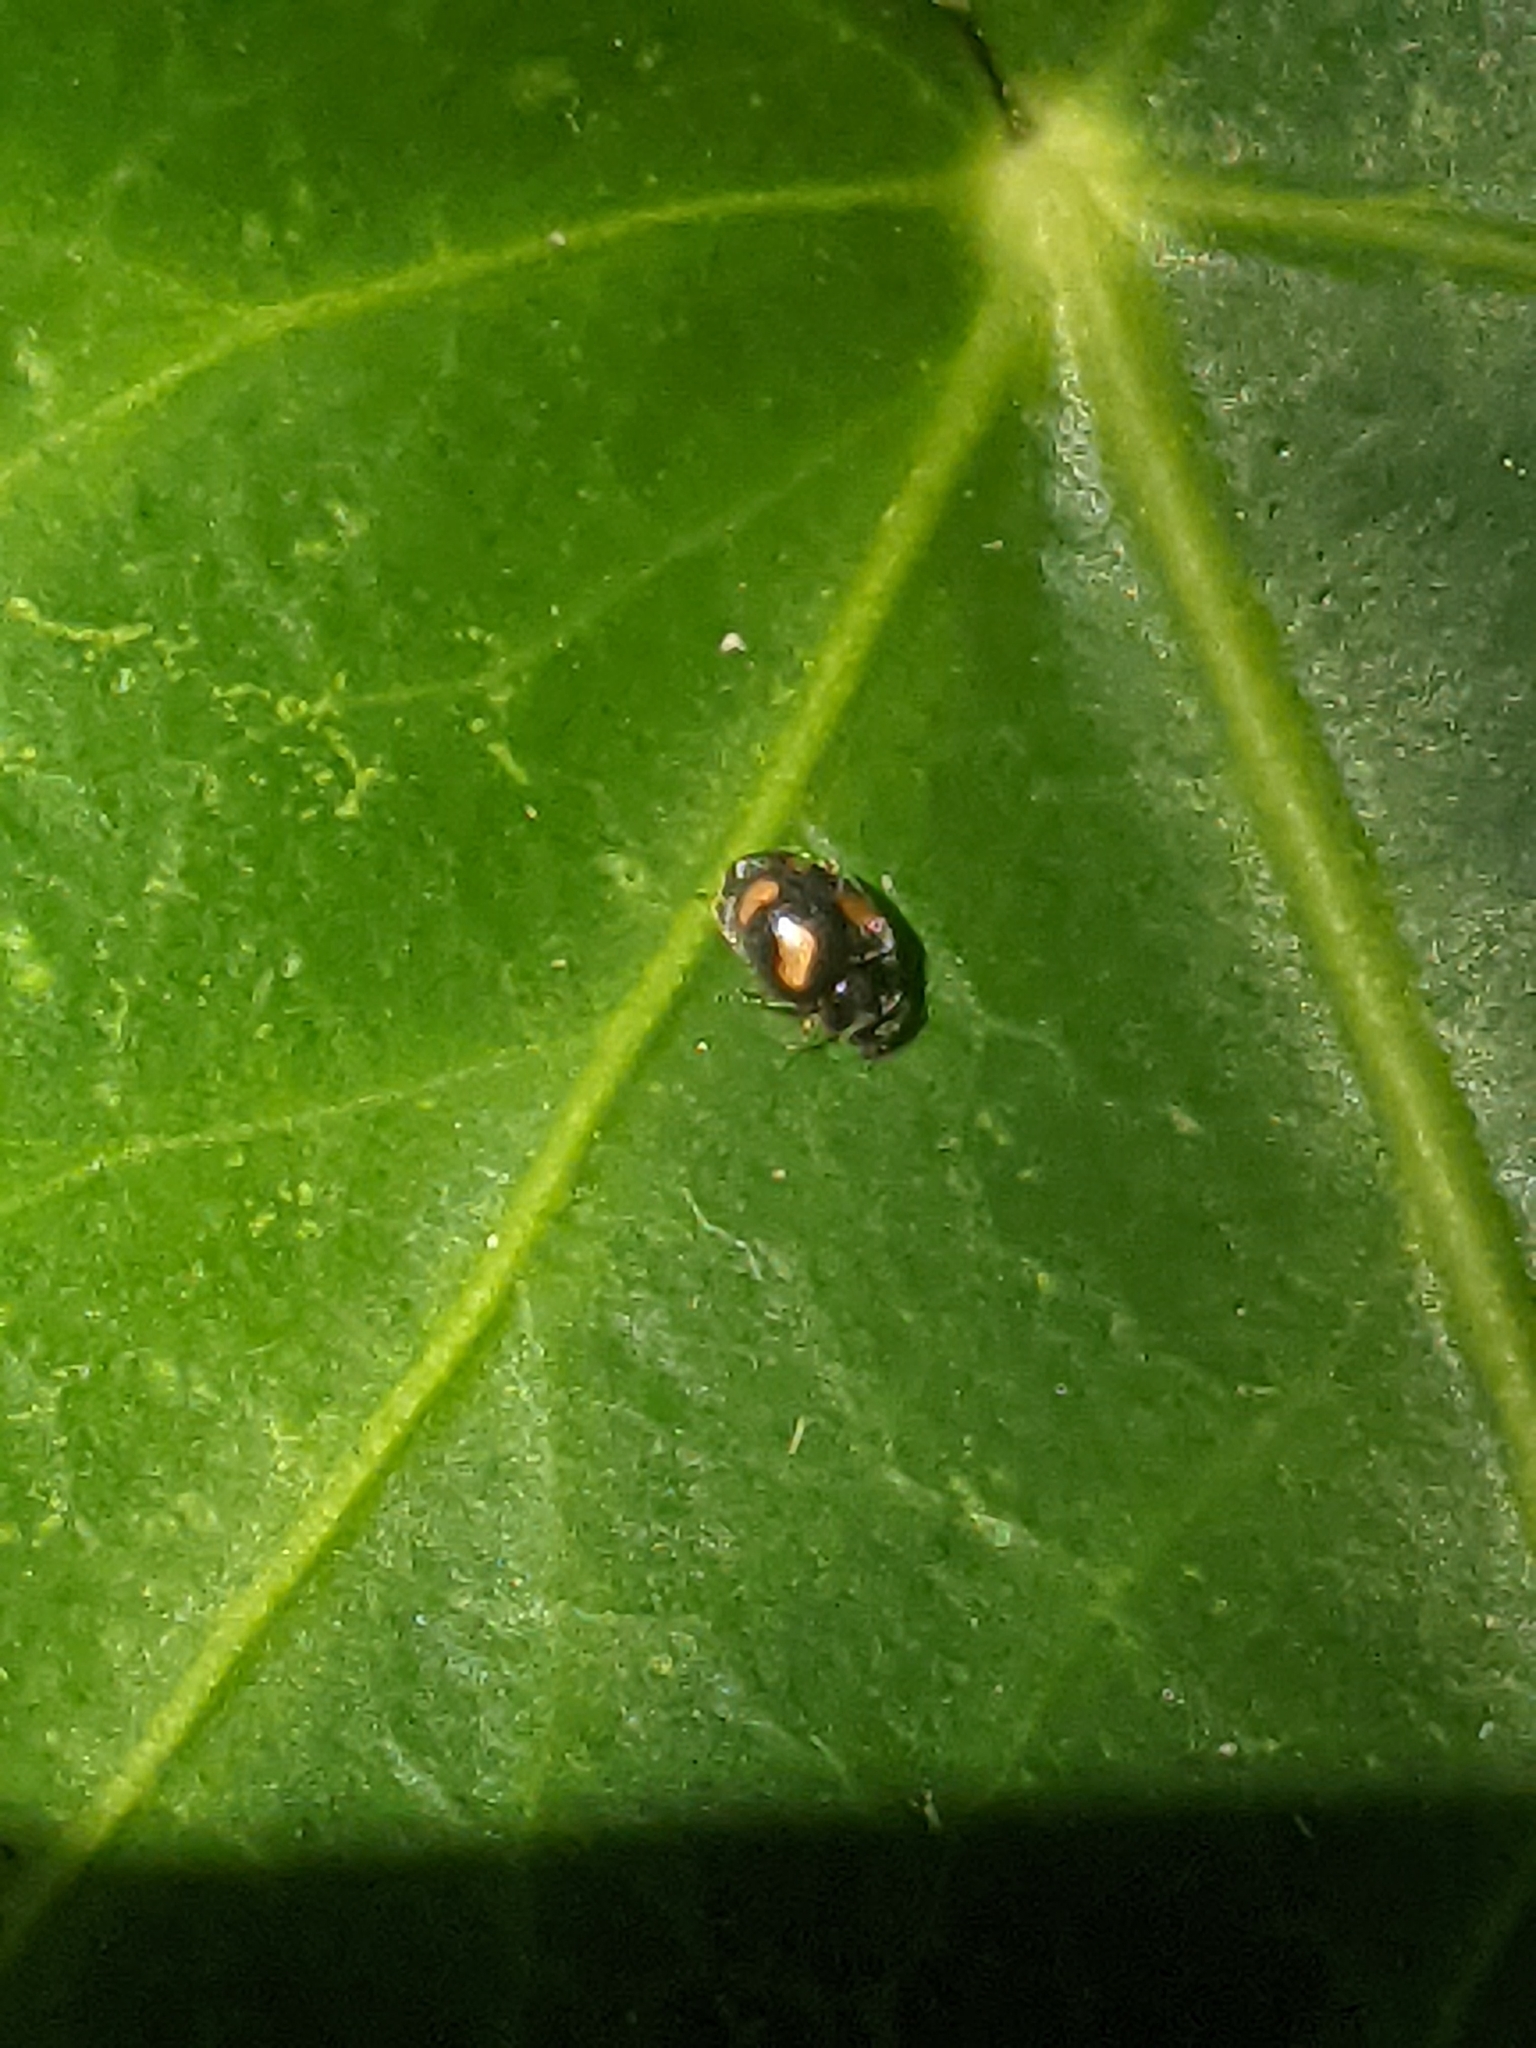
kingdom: Animalia
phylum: Arthropoda
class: Insecta
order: Coleoptera
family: Coccinellidae
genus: Nephus
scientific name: Nephus quadrimaculatus
